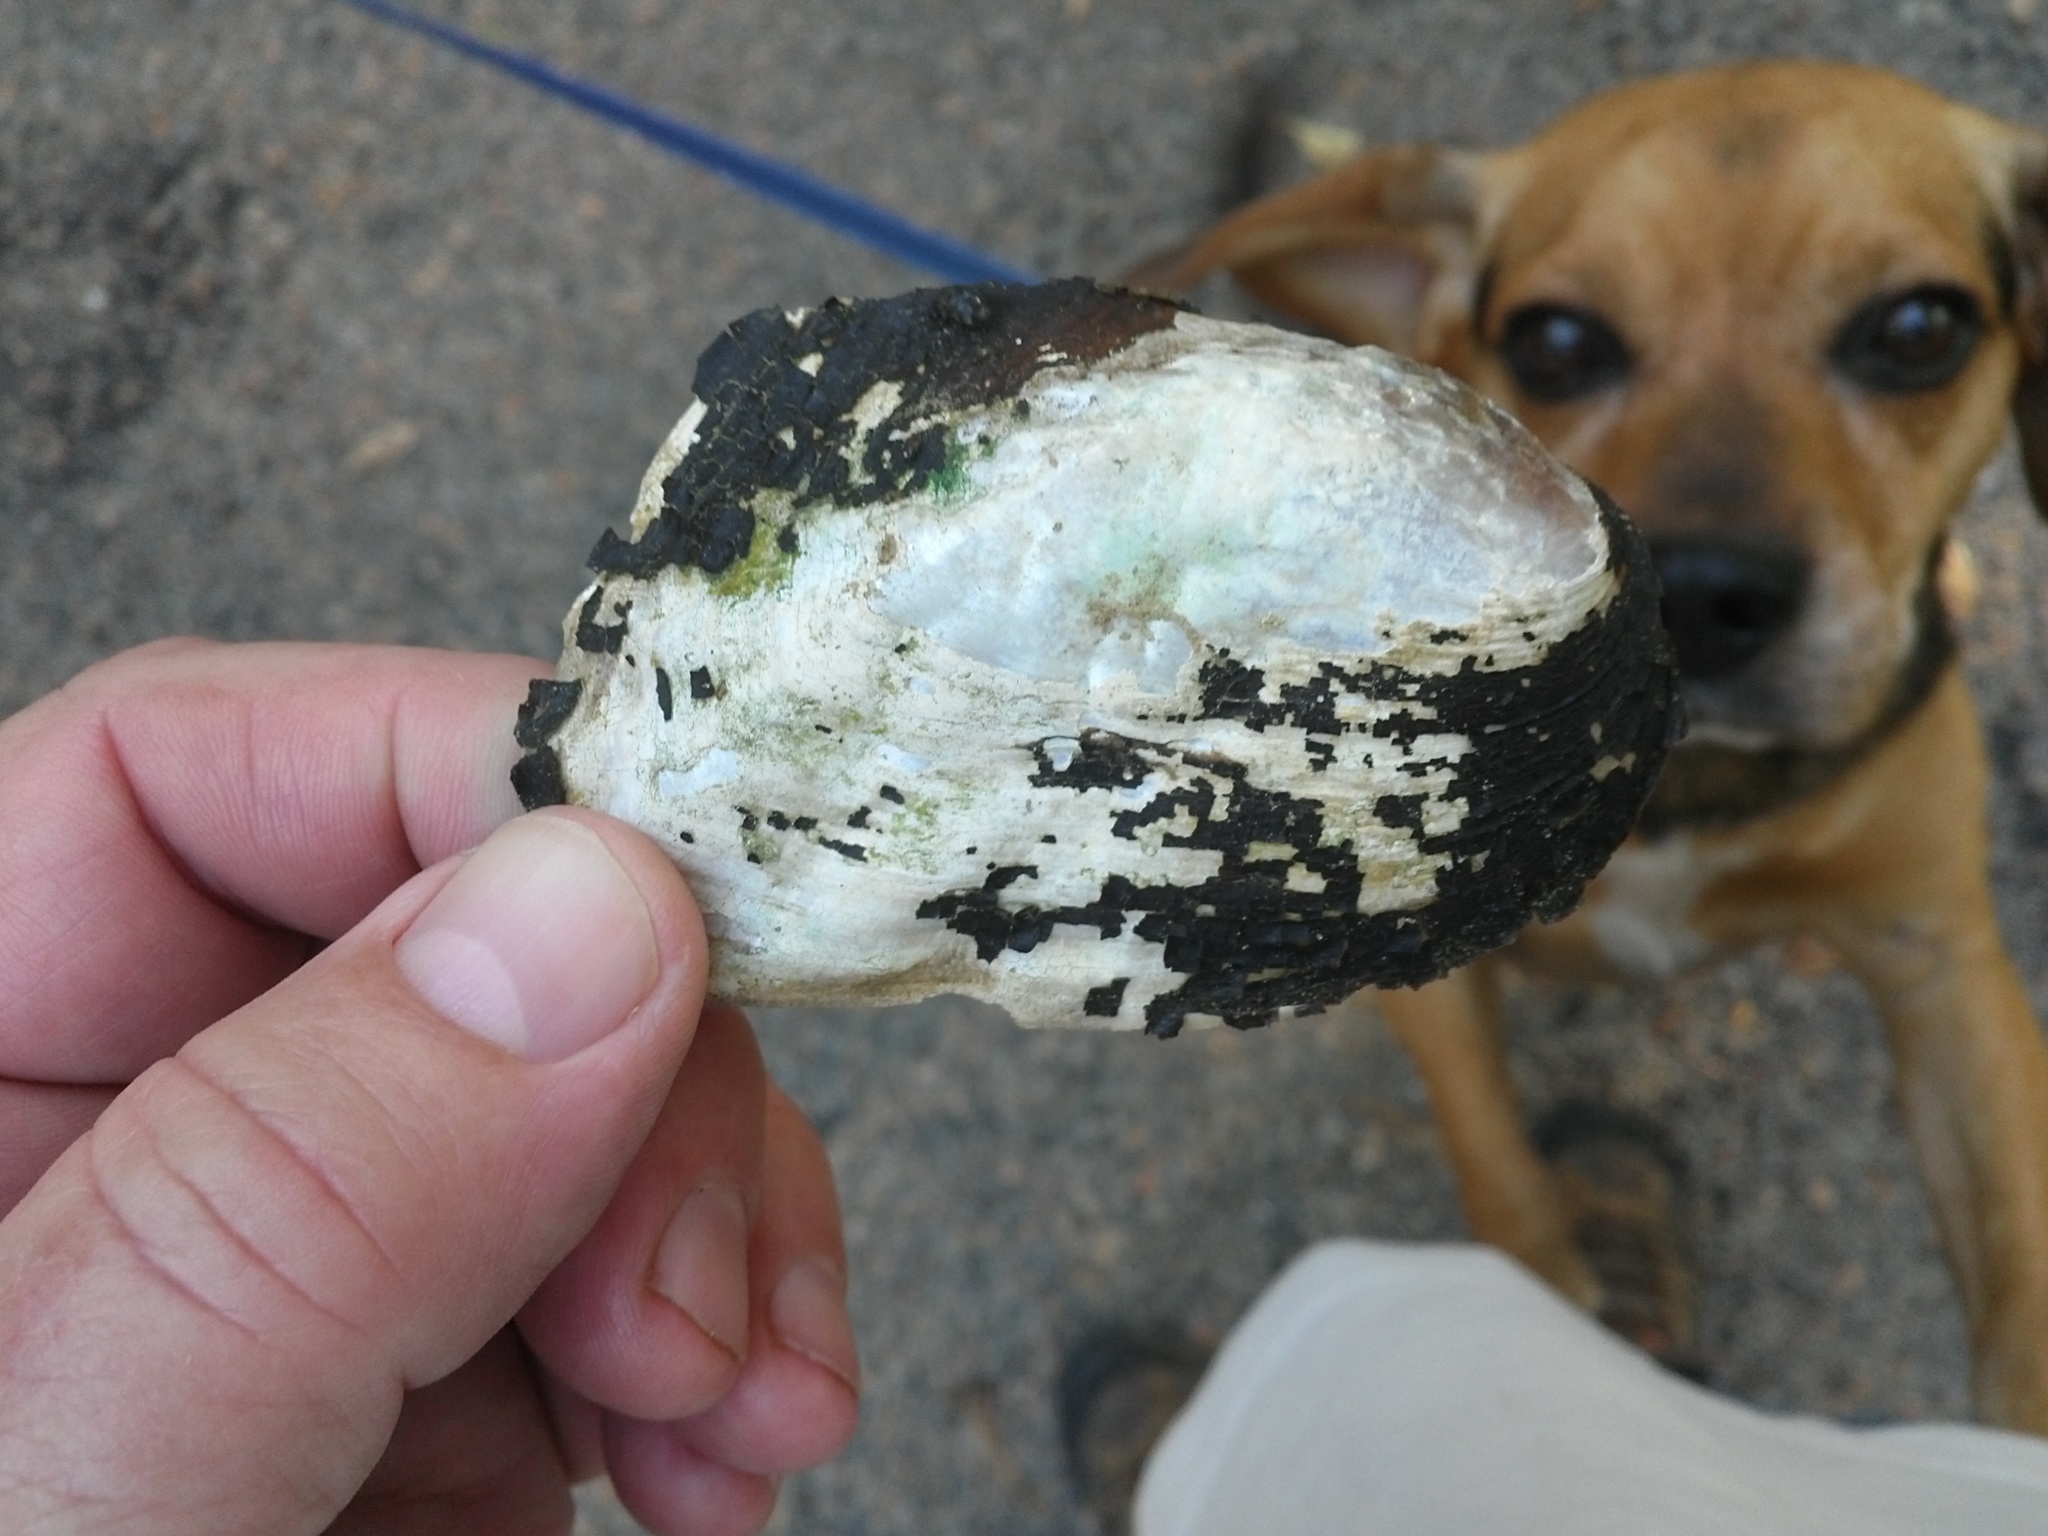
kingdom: Animalia
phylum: Mollusca
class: Bivalvia
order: Unionida
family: Unionidae
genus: Plectomerus
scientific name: Plectomerus dombeyanus
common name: Bankclimber
